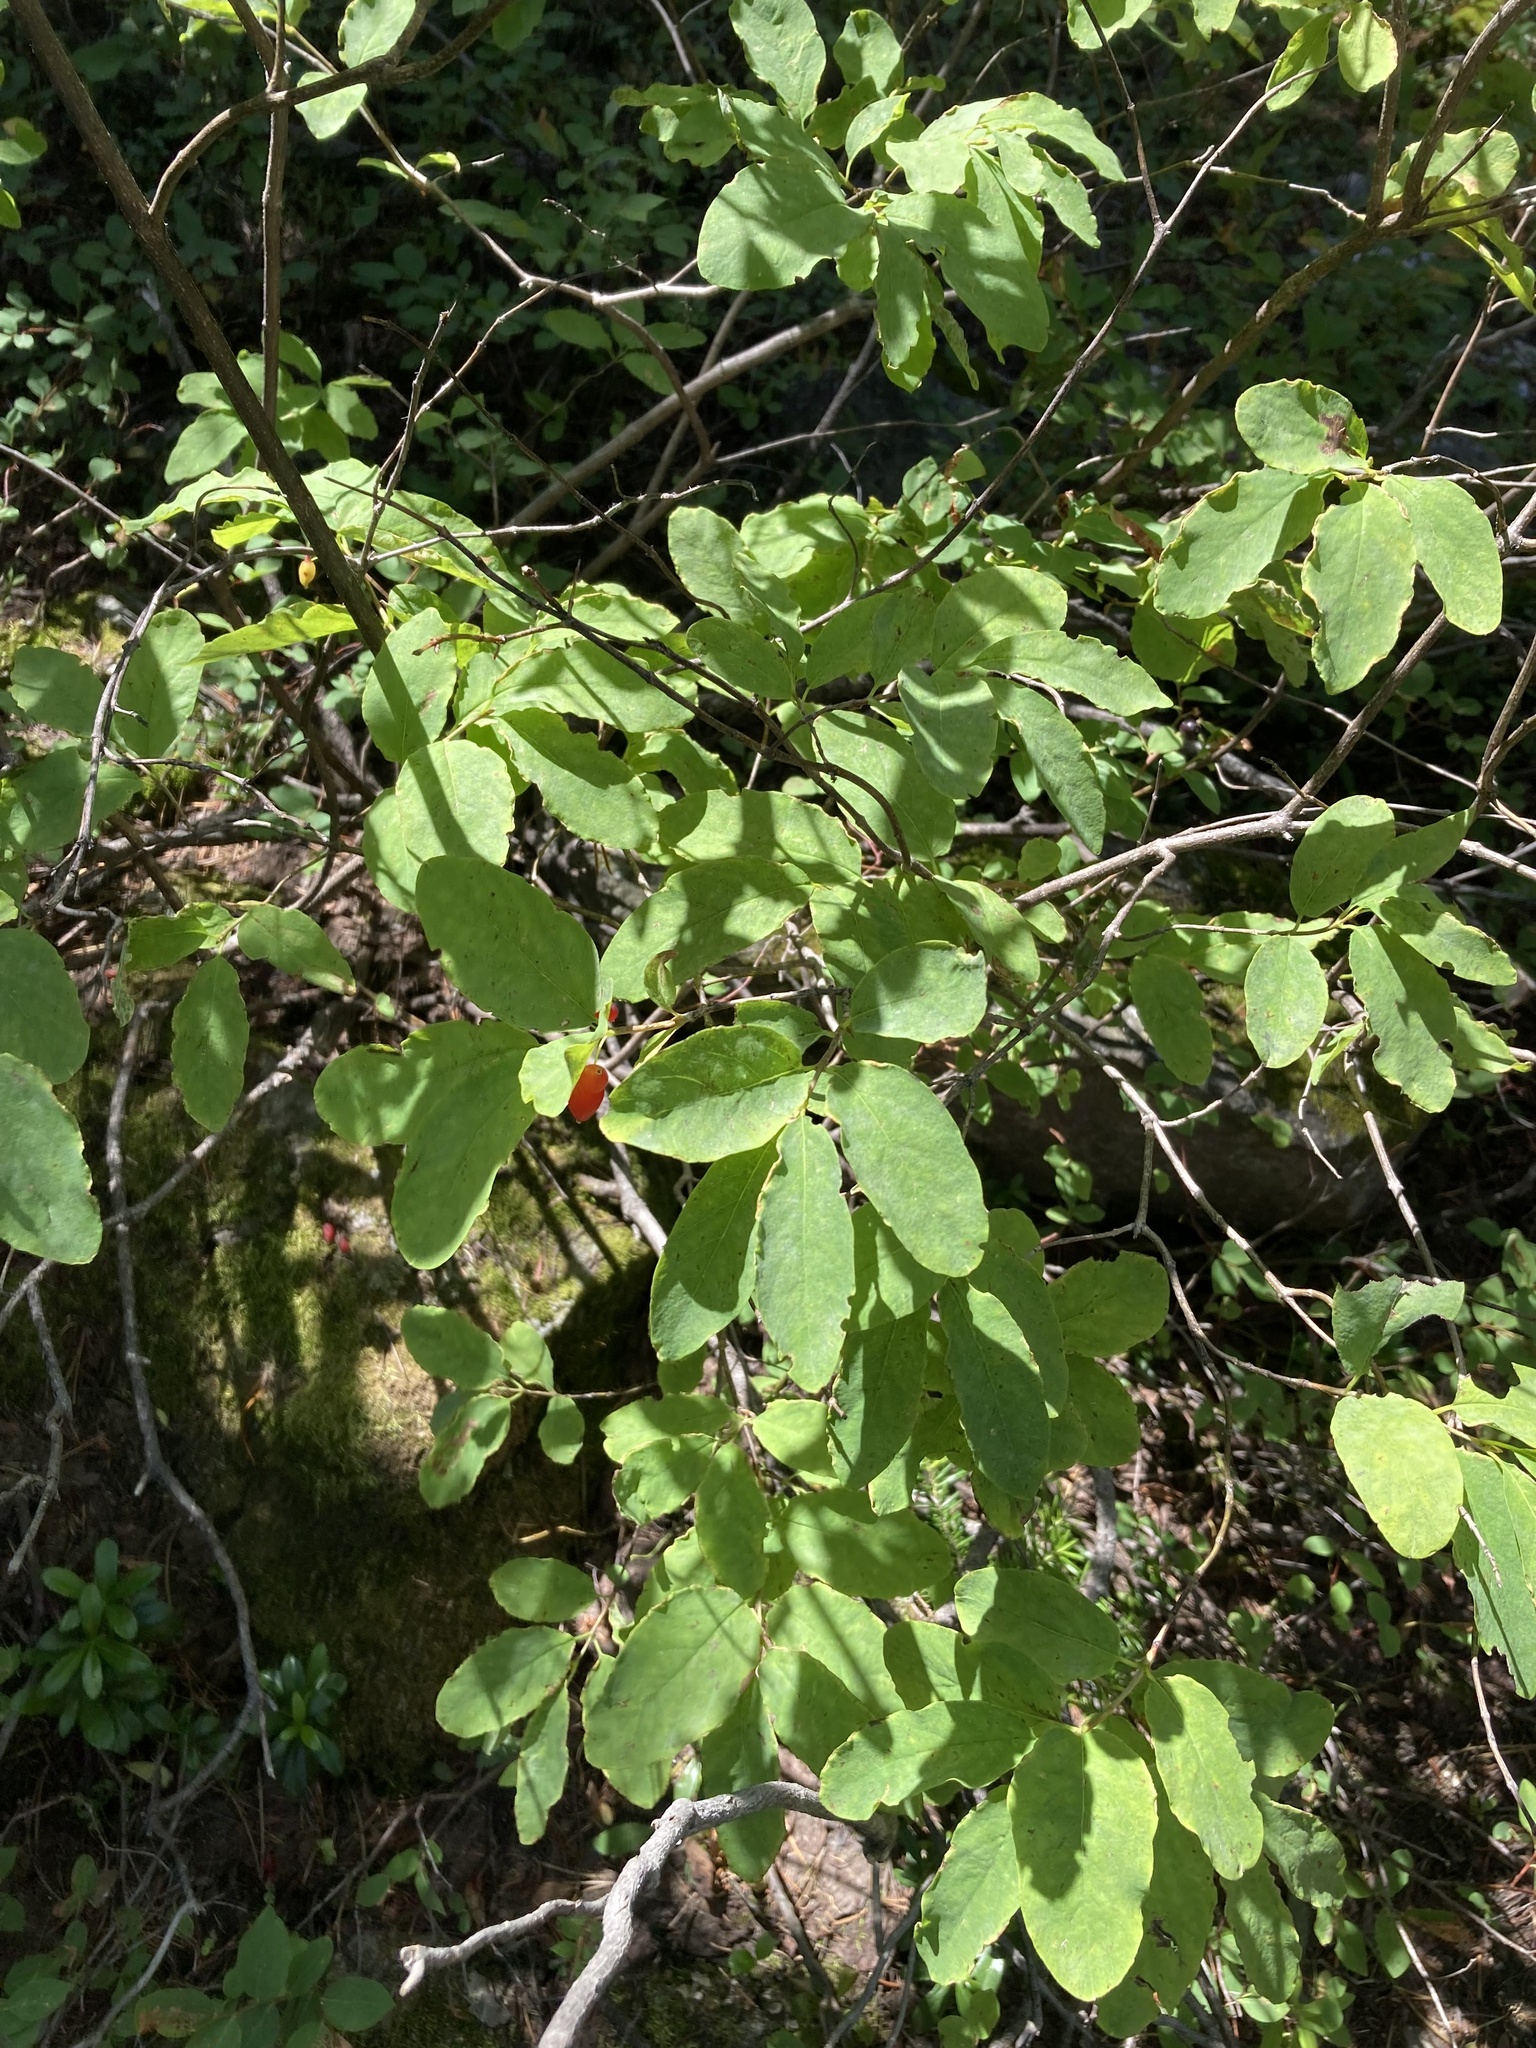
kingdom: Plantae
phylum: Tracheophyta
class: Magnoliopsida
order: Dipsacales
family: Caprifoliaceae
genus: Lonicera
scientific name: Lonicera utahensis
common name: Utah honeysuckle
